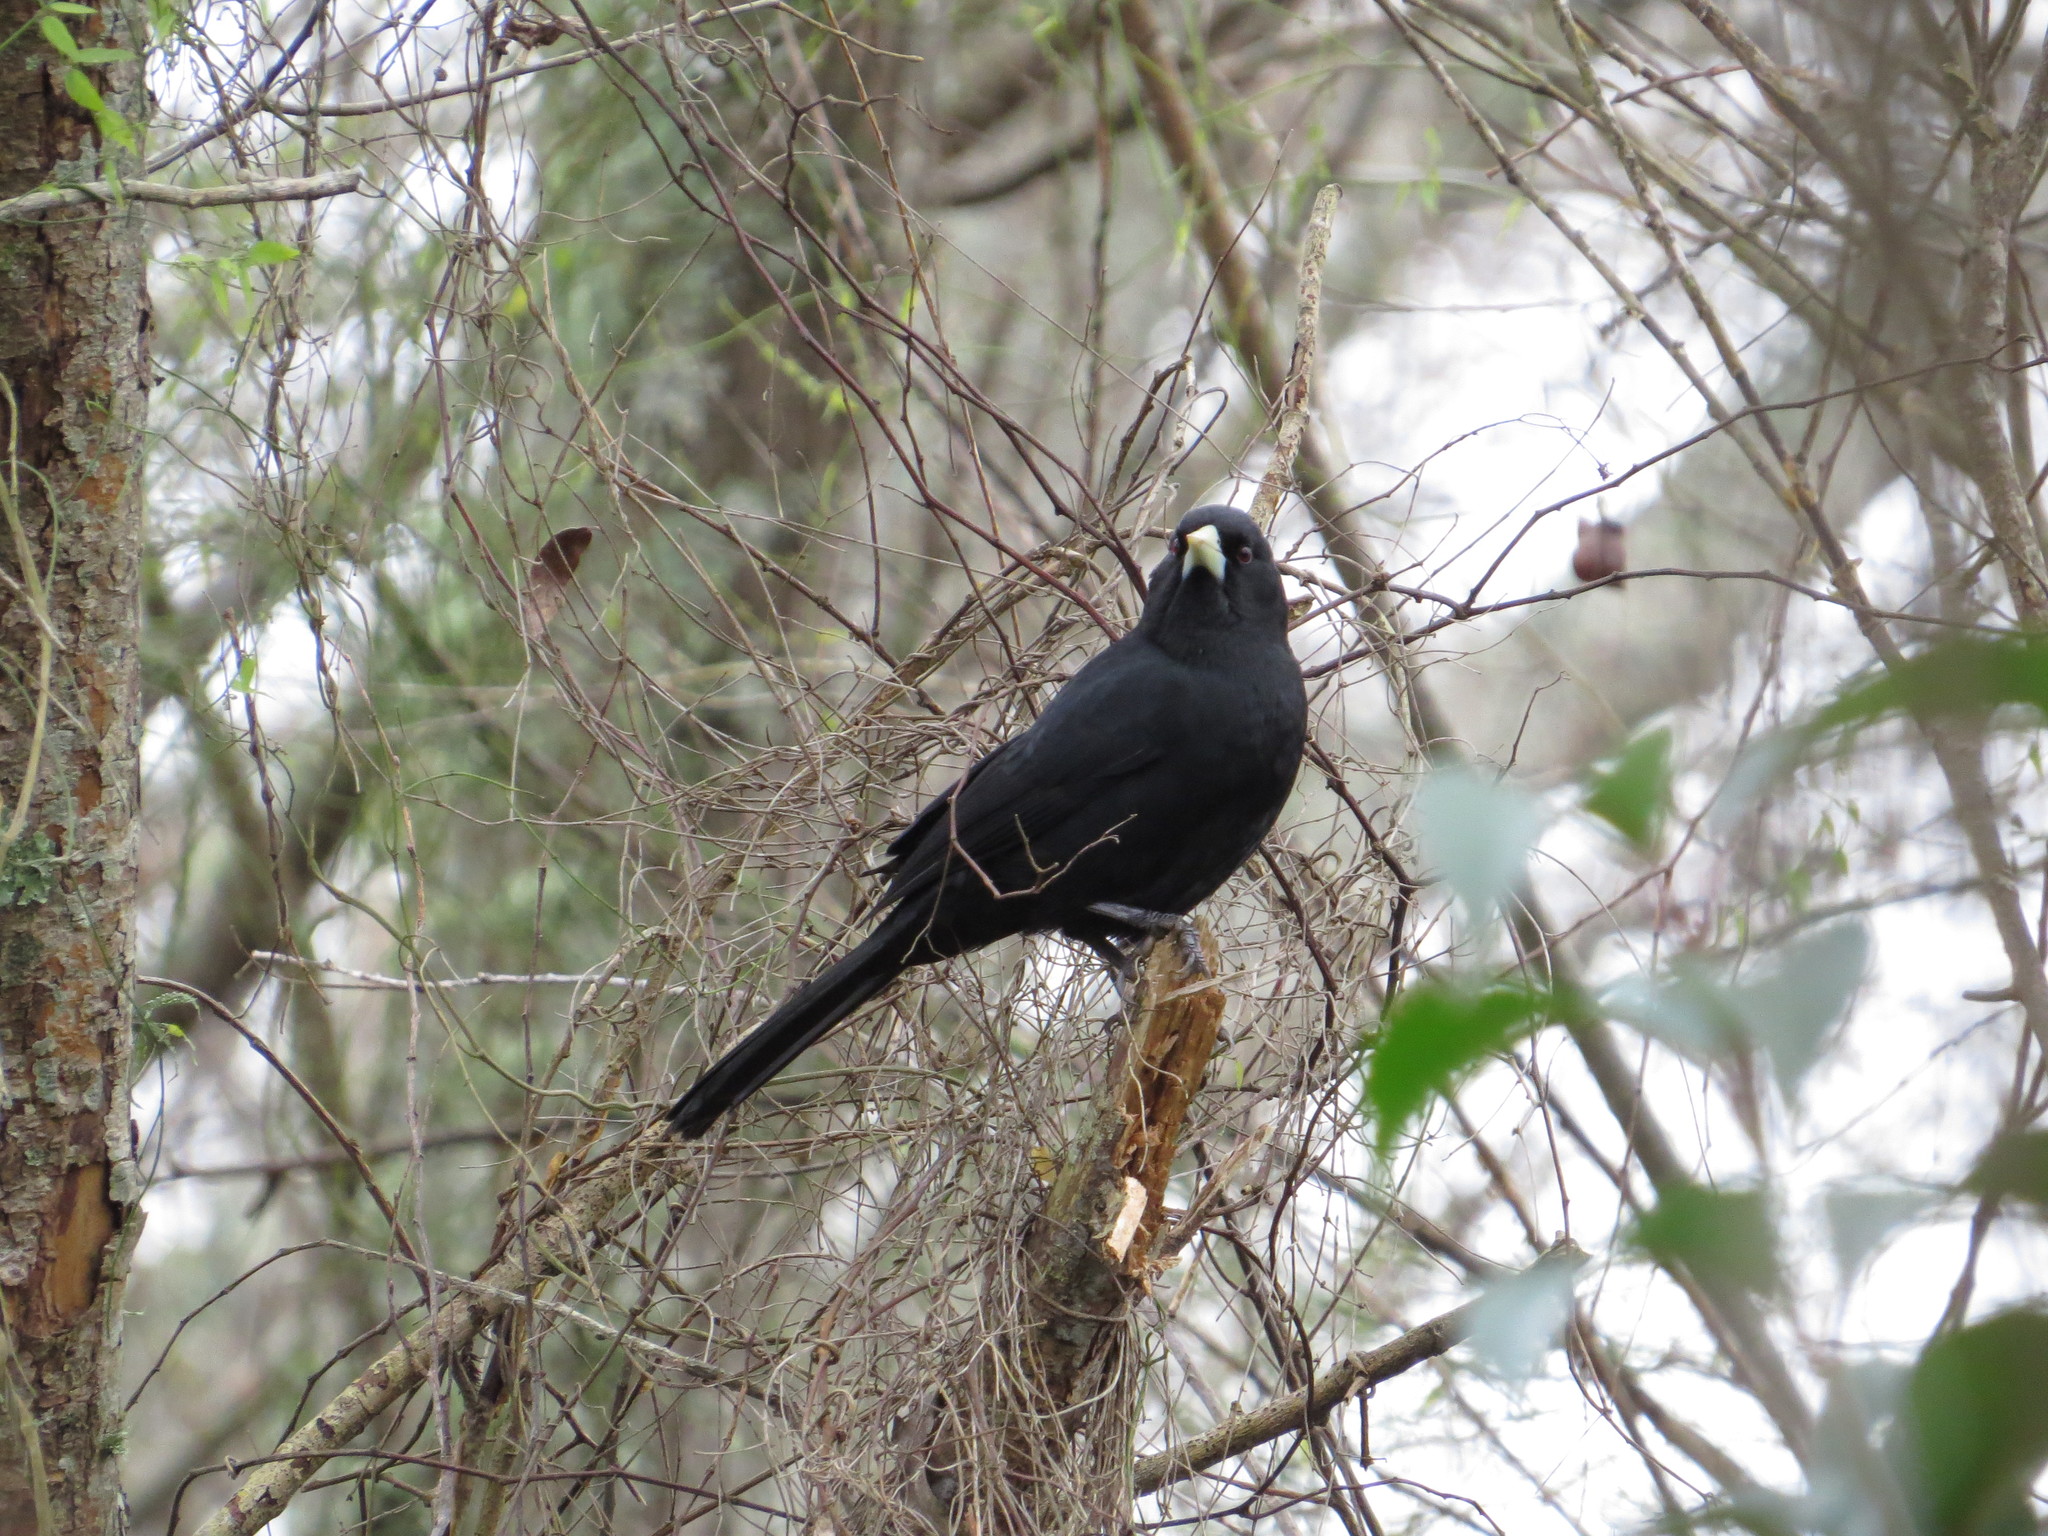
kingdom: Animalia
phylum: Chordata
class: Aves
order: Passeriformes
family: Icteridae
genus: Cacicus
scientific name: Cacicus solitarius
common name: Solitary cacique
